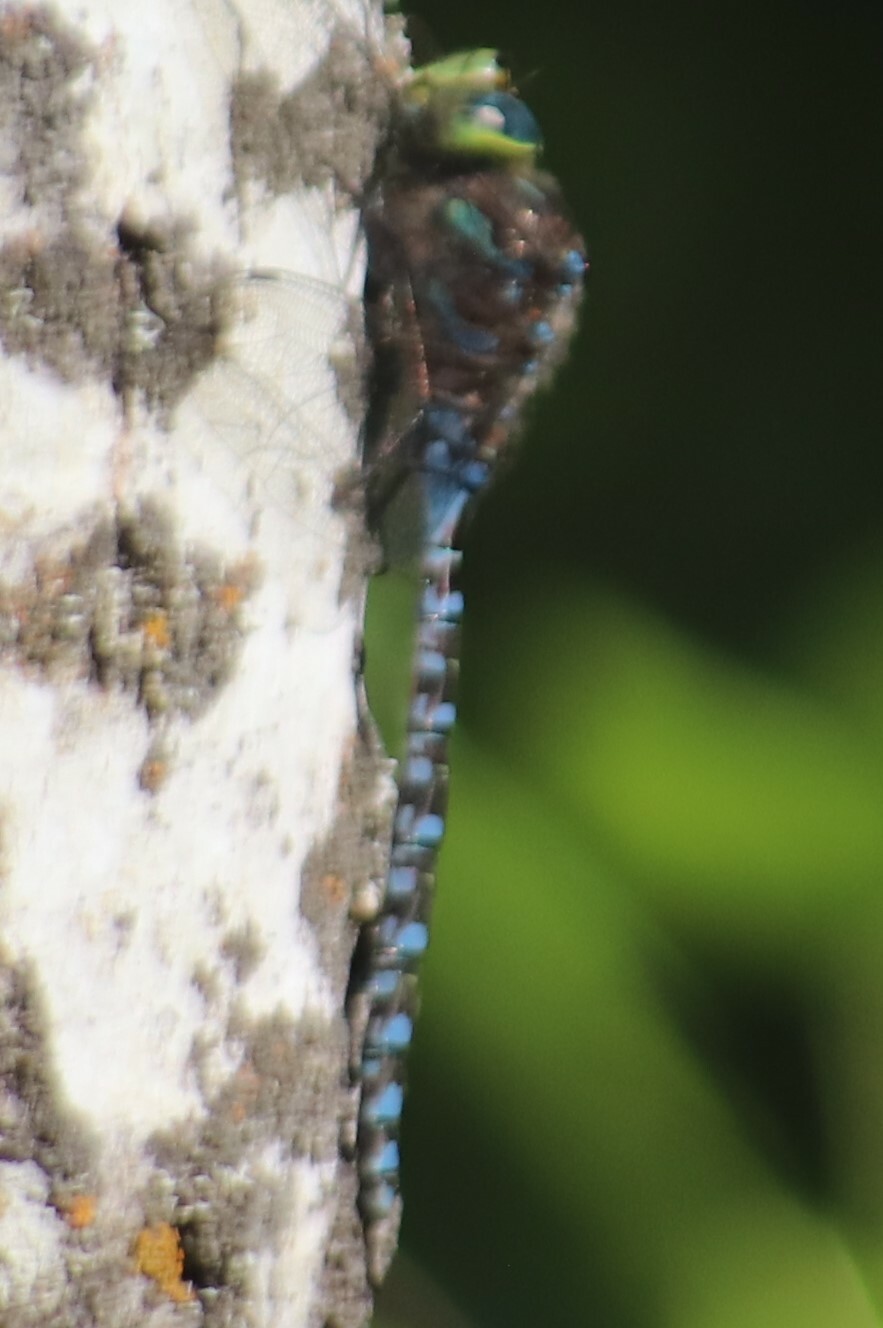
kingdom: Animalia
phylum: Arthropoda
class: Insecta
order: Odonata
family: Aeshnidae
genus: Aeshna
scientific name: Aeshna eremita
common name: Lake darner
